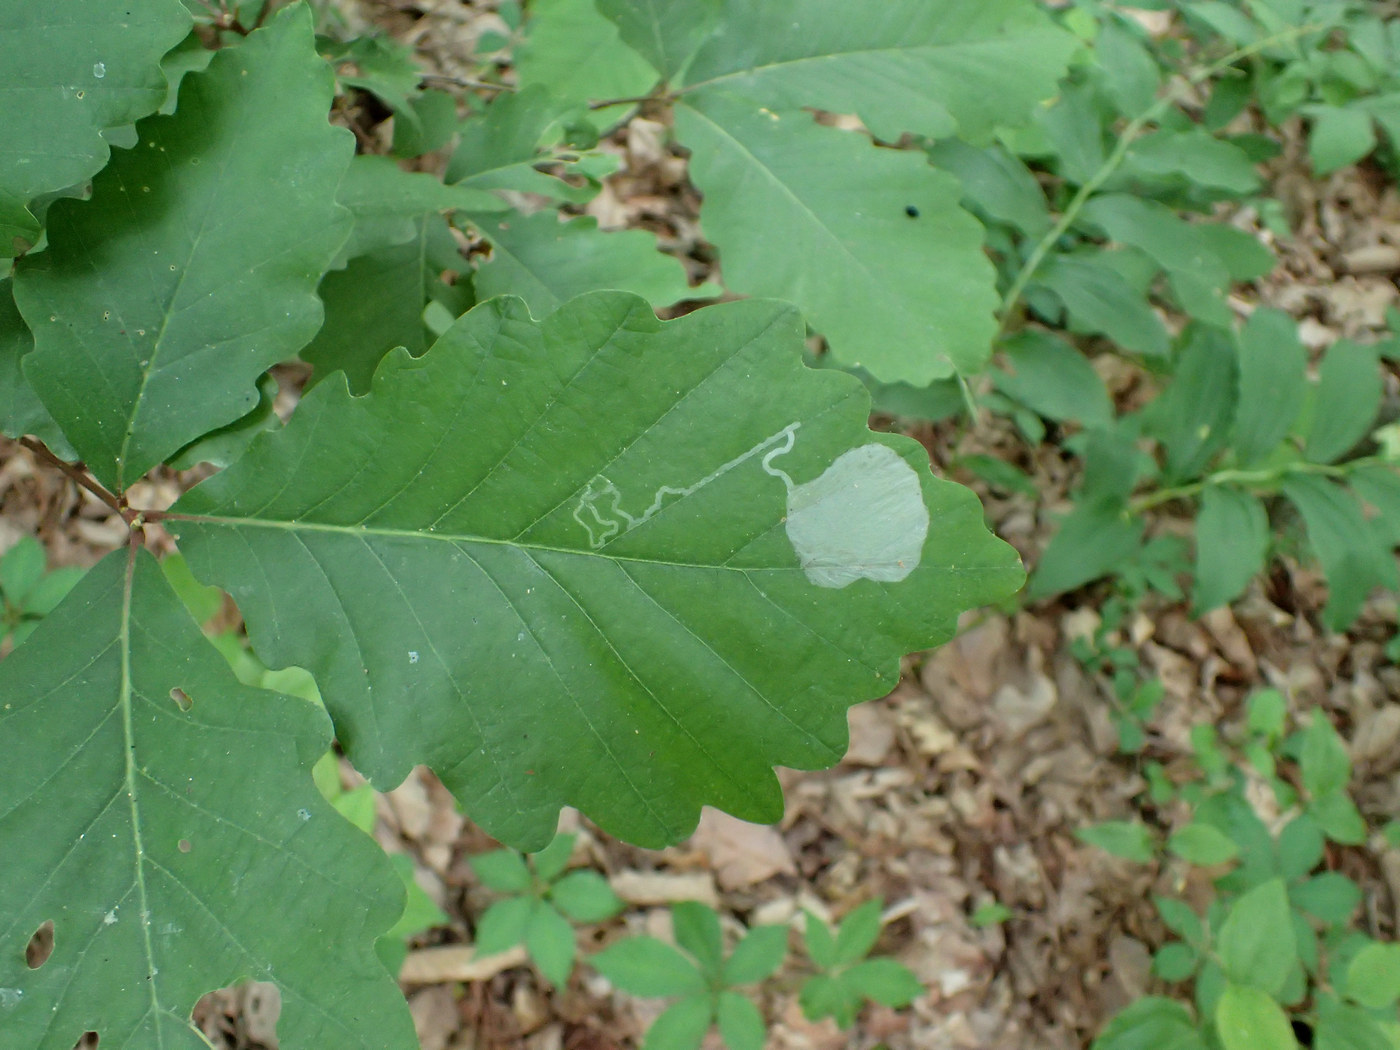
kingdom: Animalia
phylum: Arthropoda
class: Insecta
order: Lepidoptera
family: Gracillariidae
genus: Cryptolectica
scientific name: Cryptolectica
